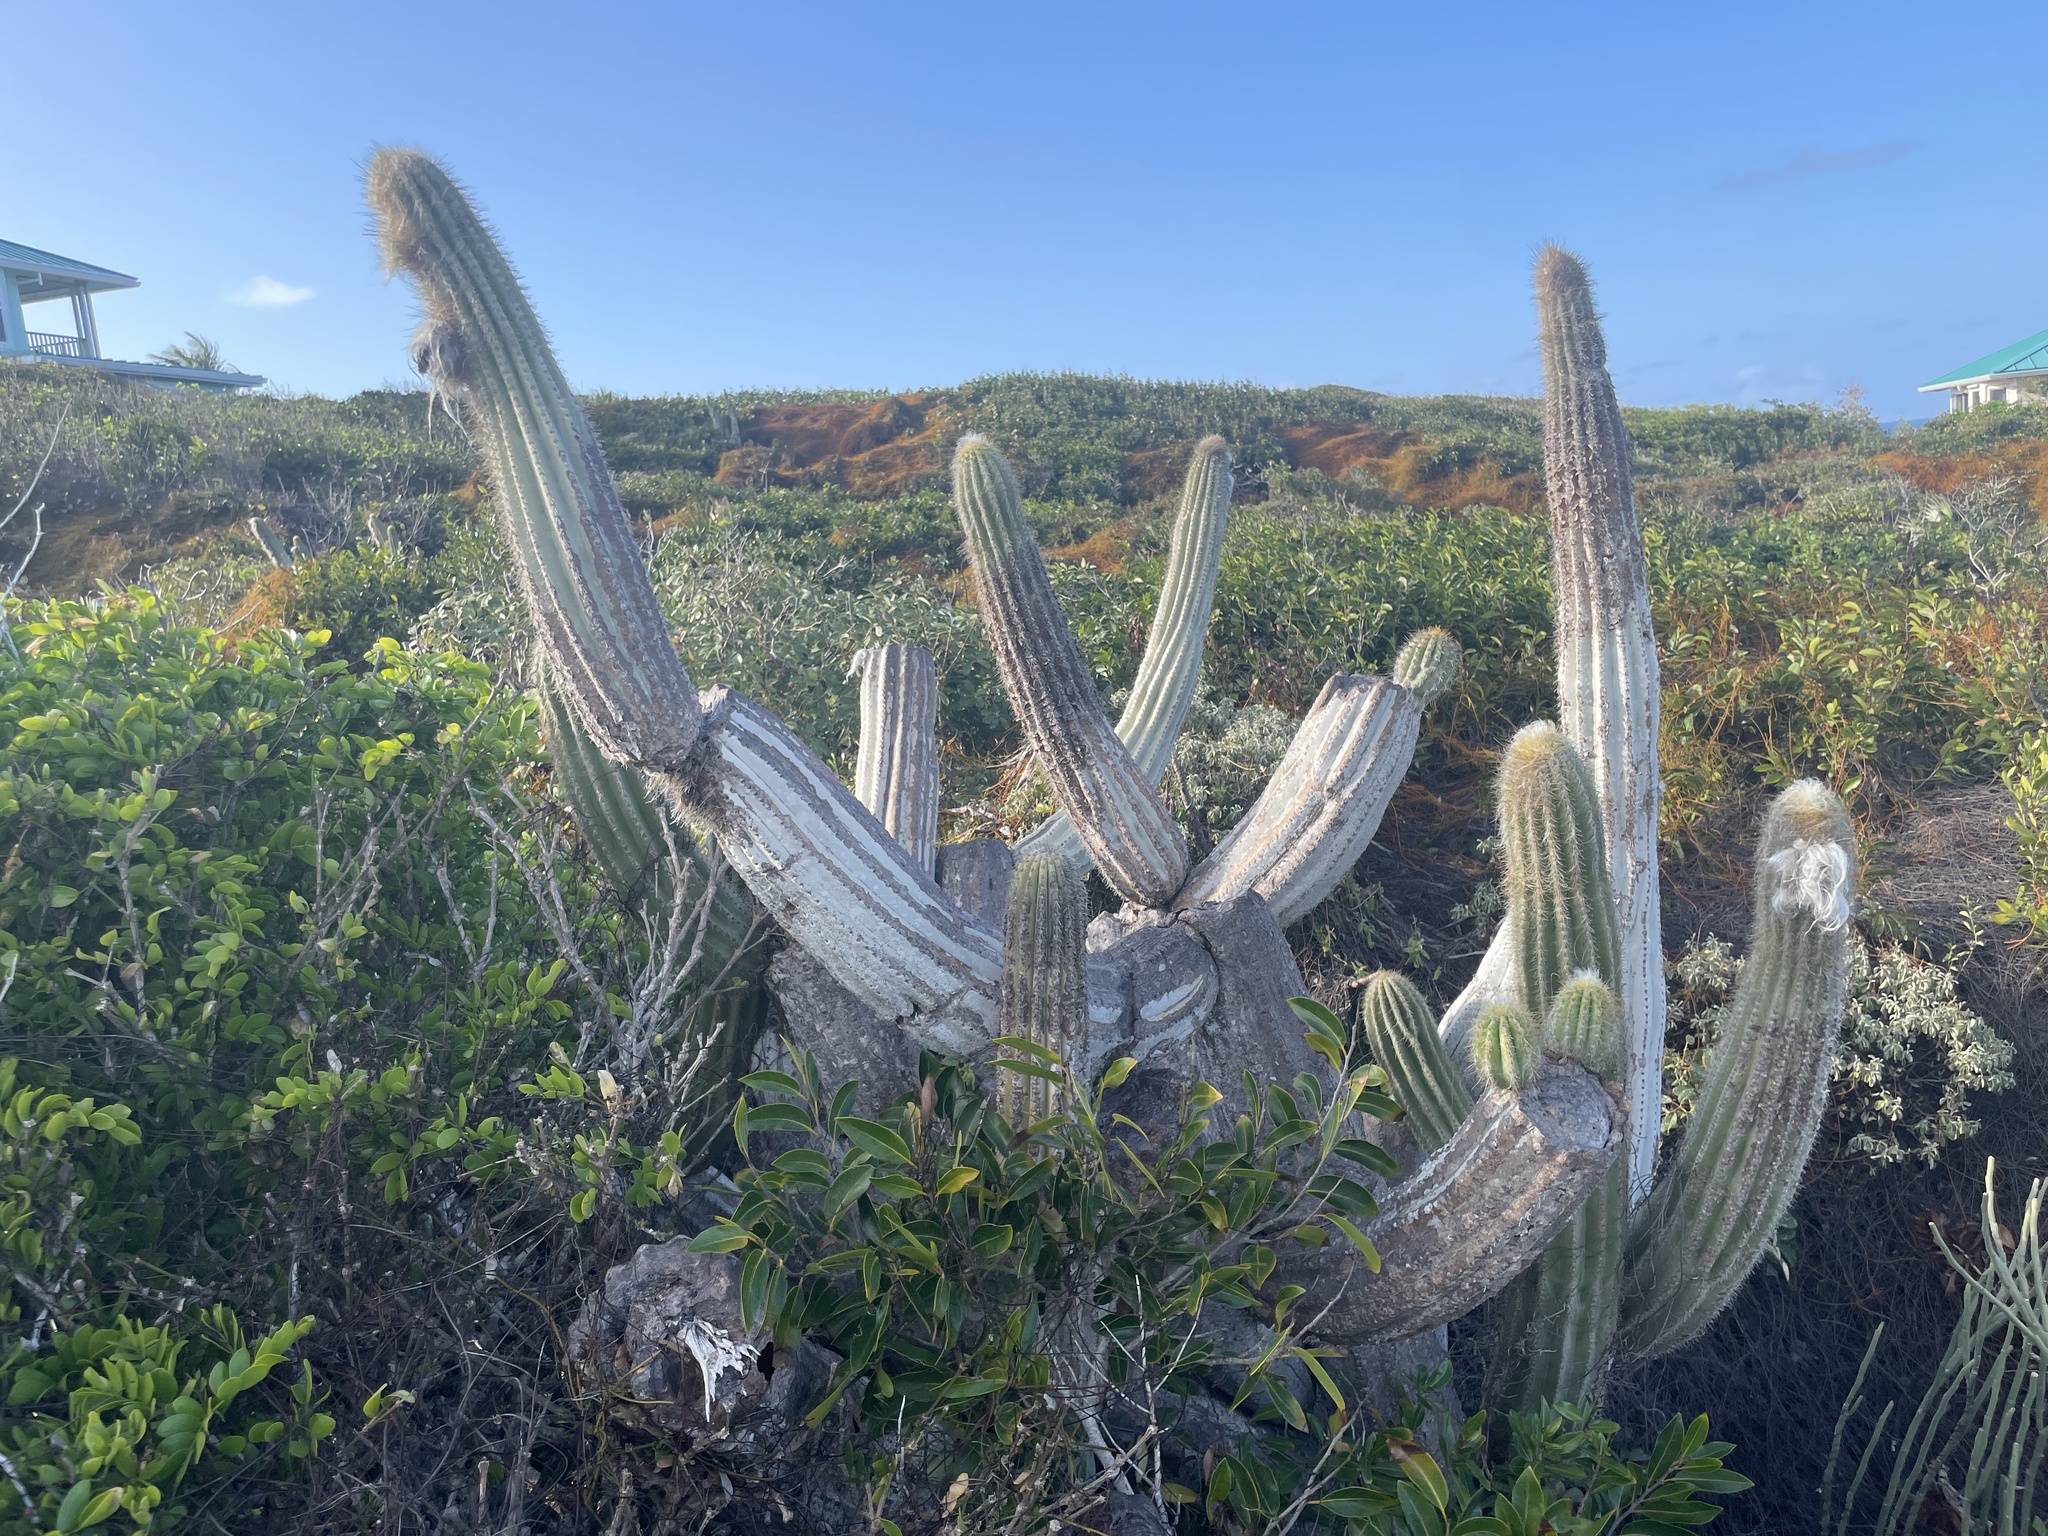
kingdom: Plantae
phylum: Tracheophyta
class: Magnoliopsida
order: Caryophyllales
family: Cactaceae
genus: Pilosocereus
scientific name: Pilosocereus millspaughii
